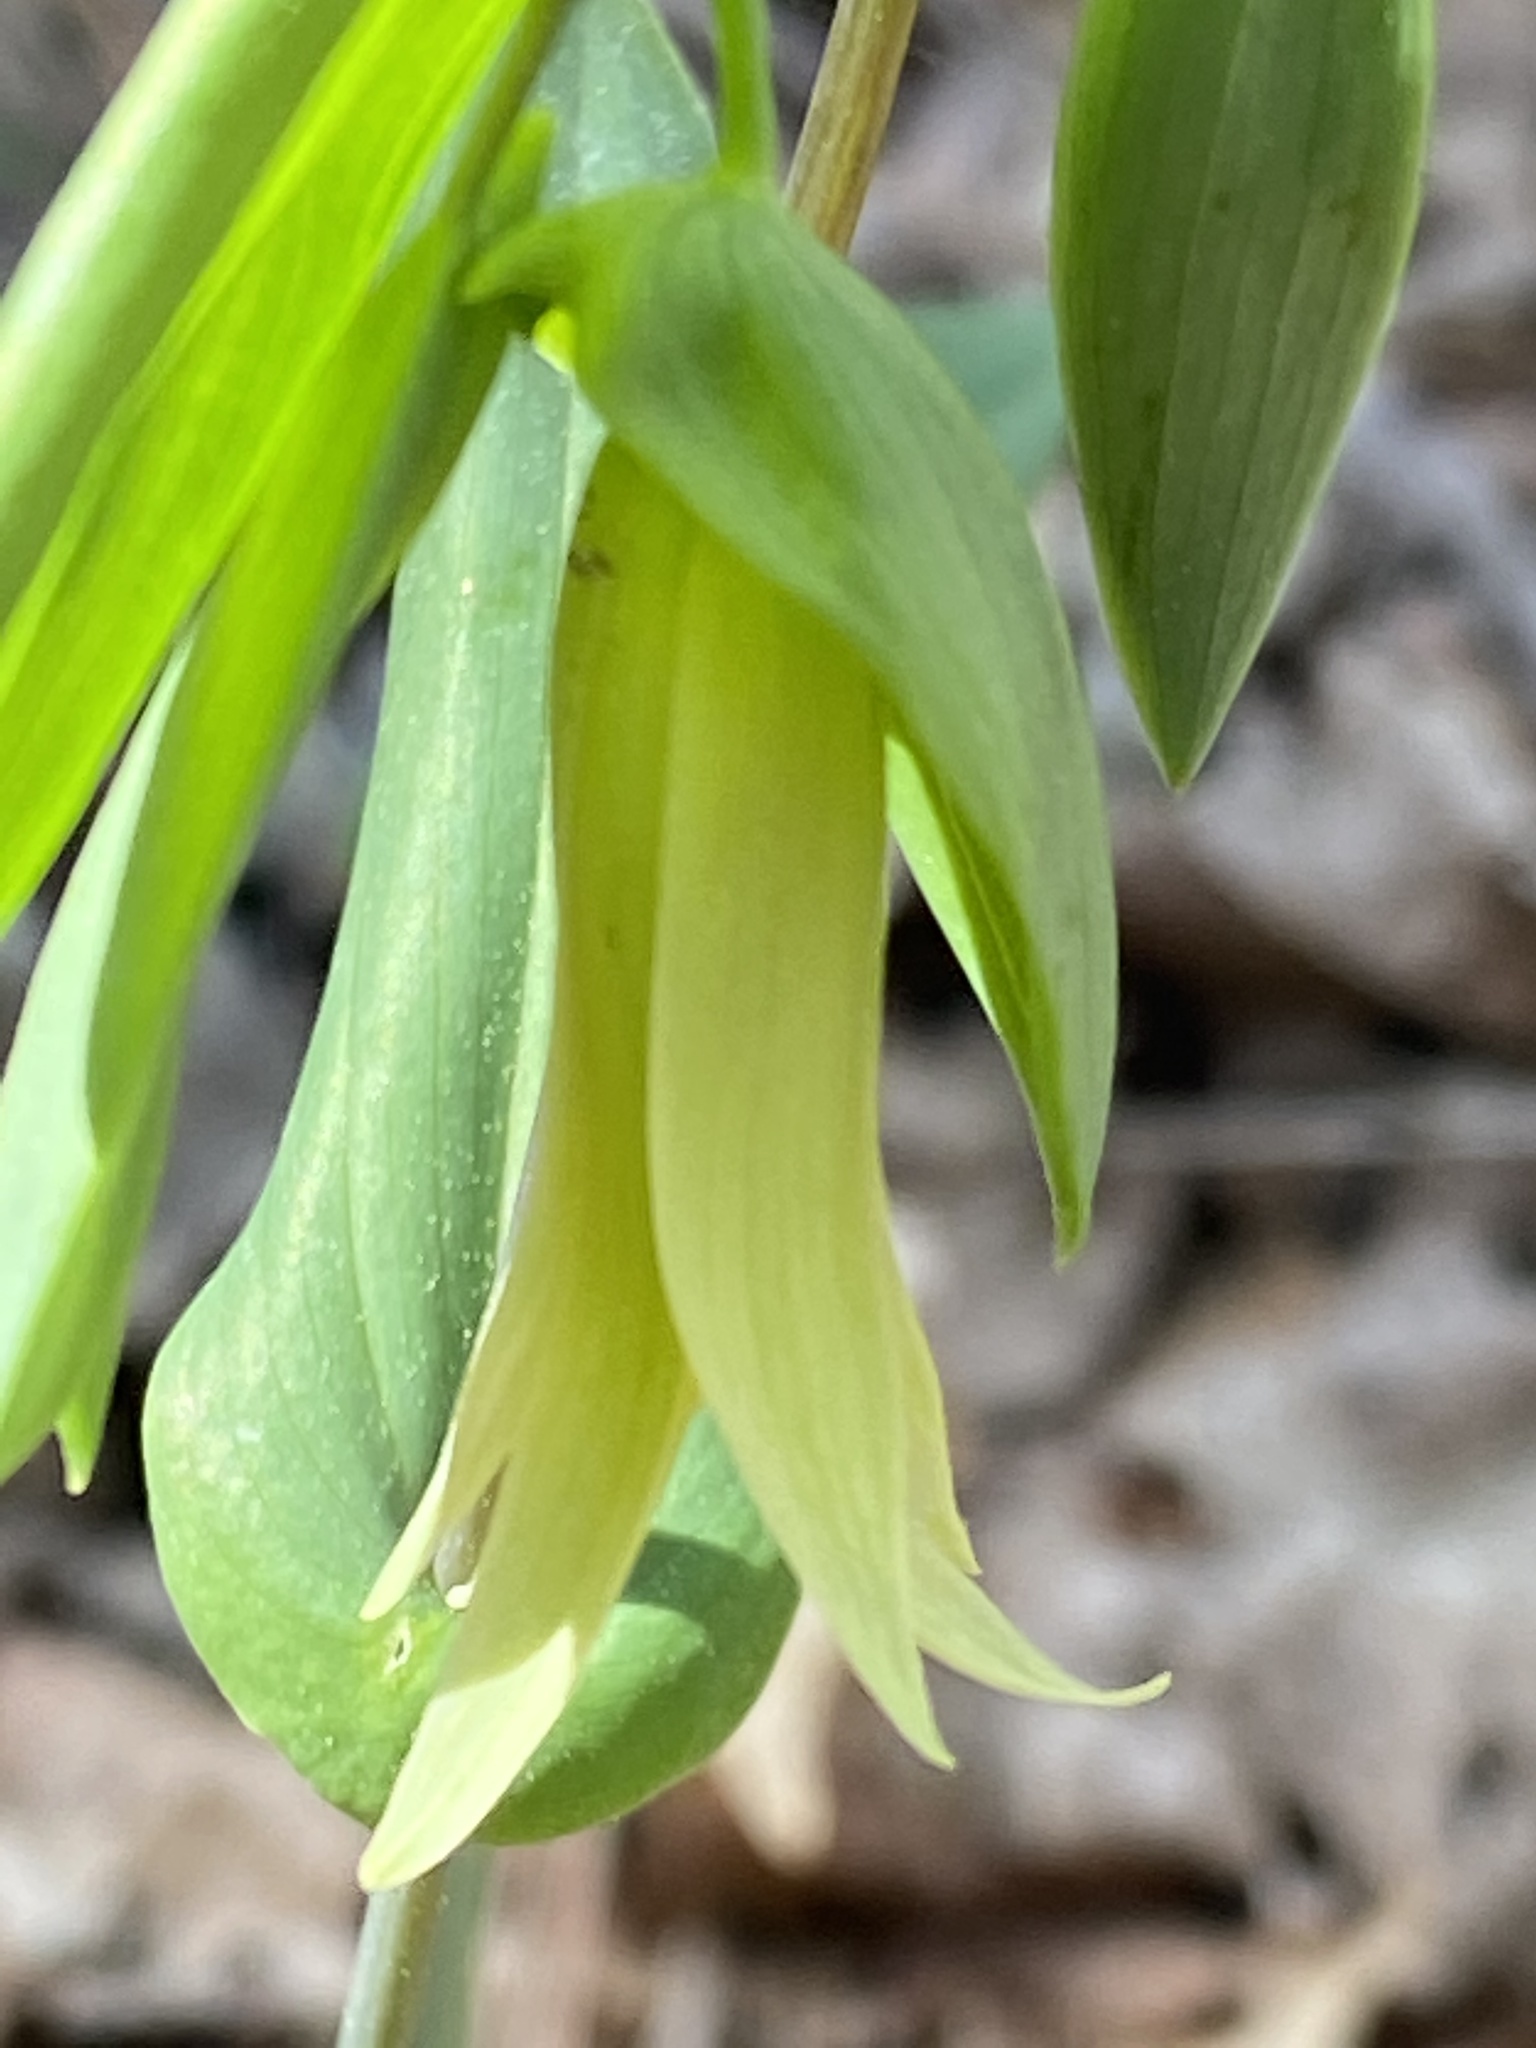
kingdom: Plantae
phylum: Tracheophyta
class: Liliopsida
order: Liliales
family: Colchicaceae
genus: Uvularia
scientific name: Uvularia perfoliata
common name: Perfoliate bellwort
